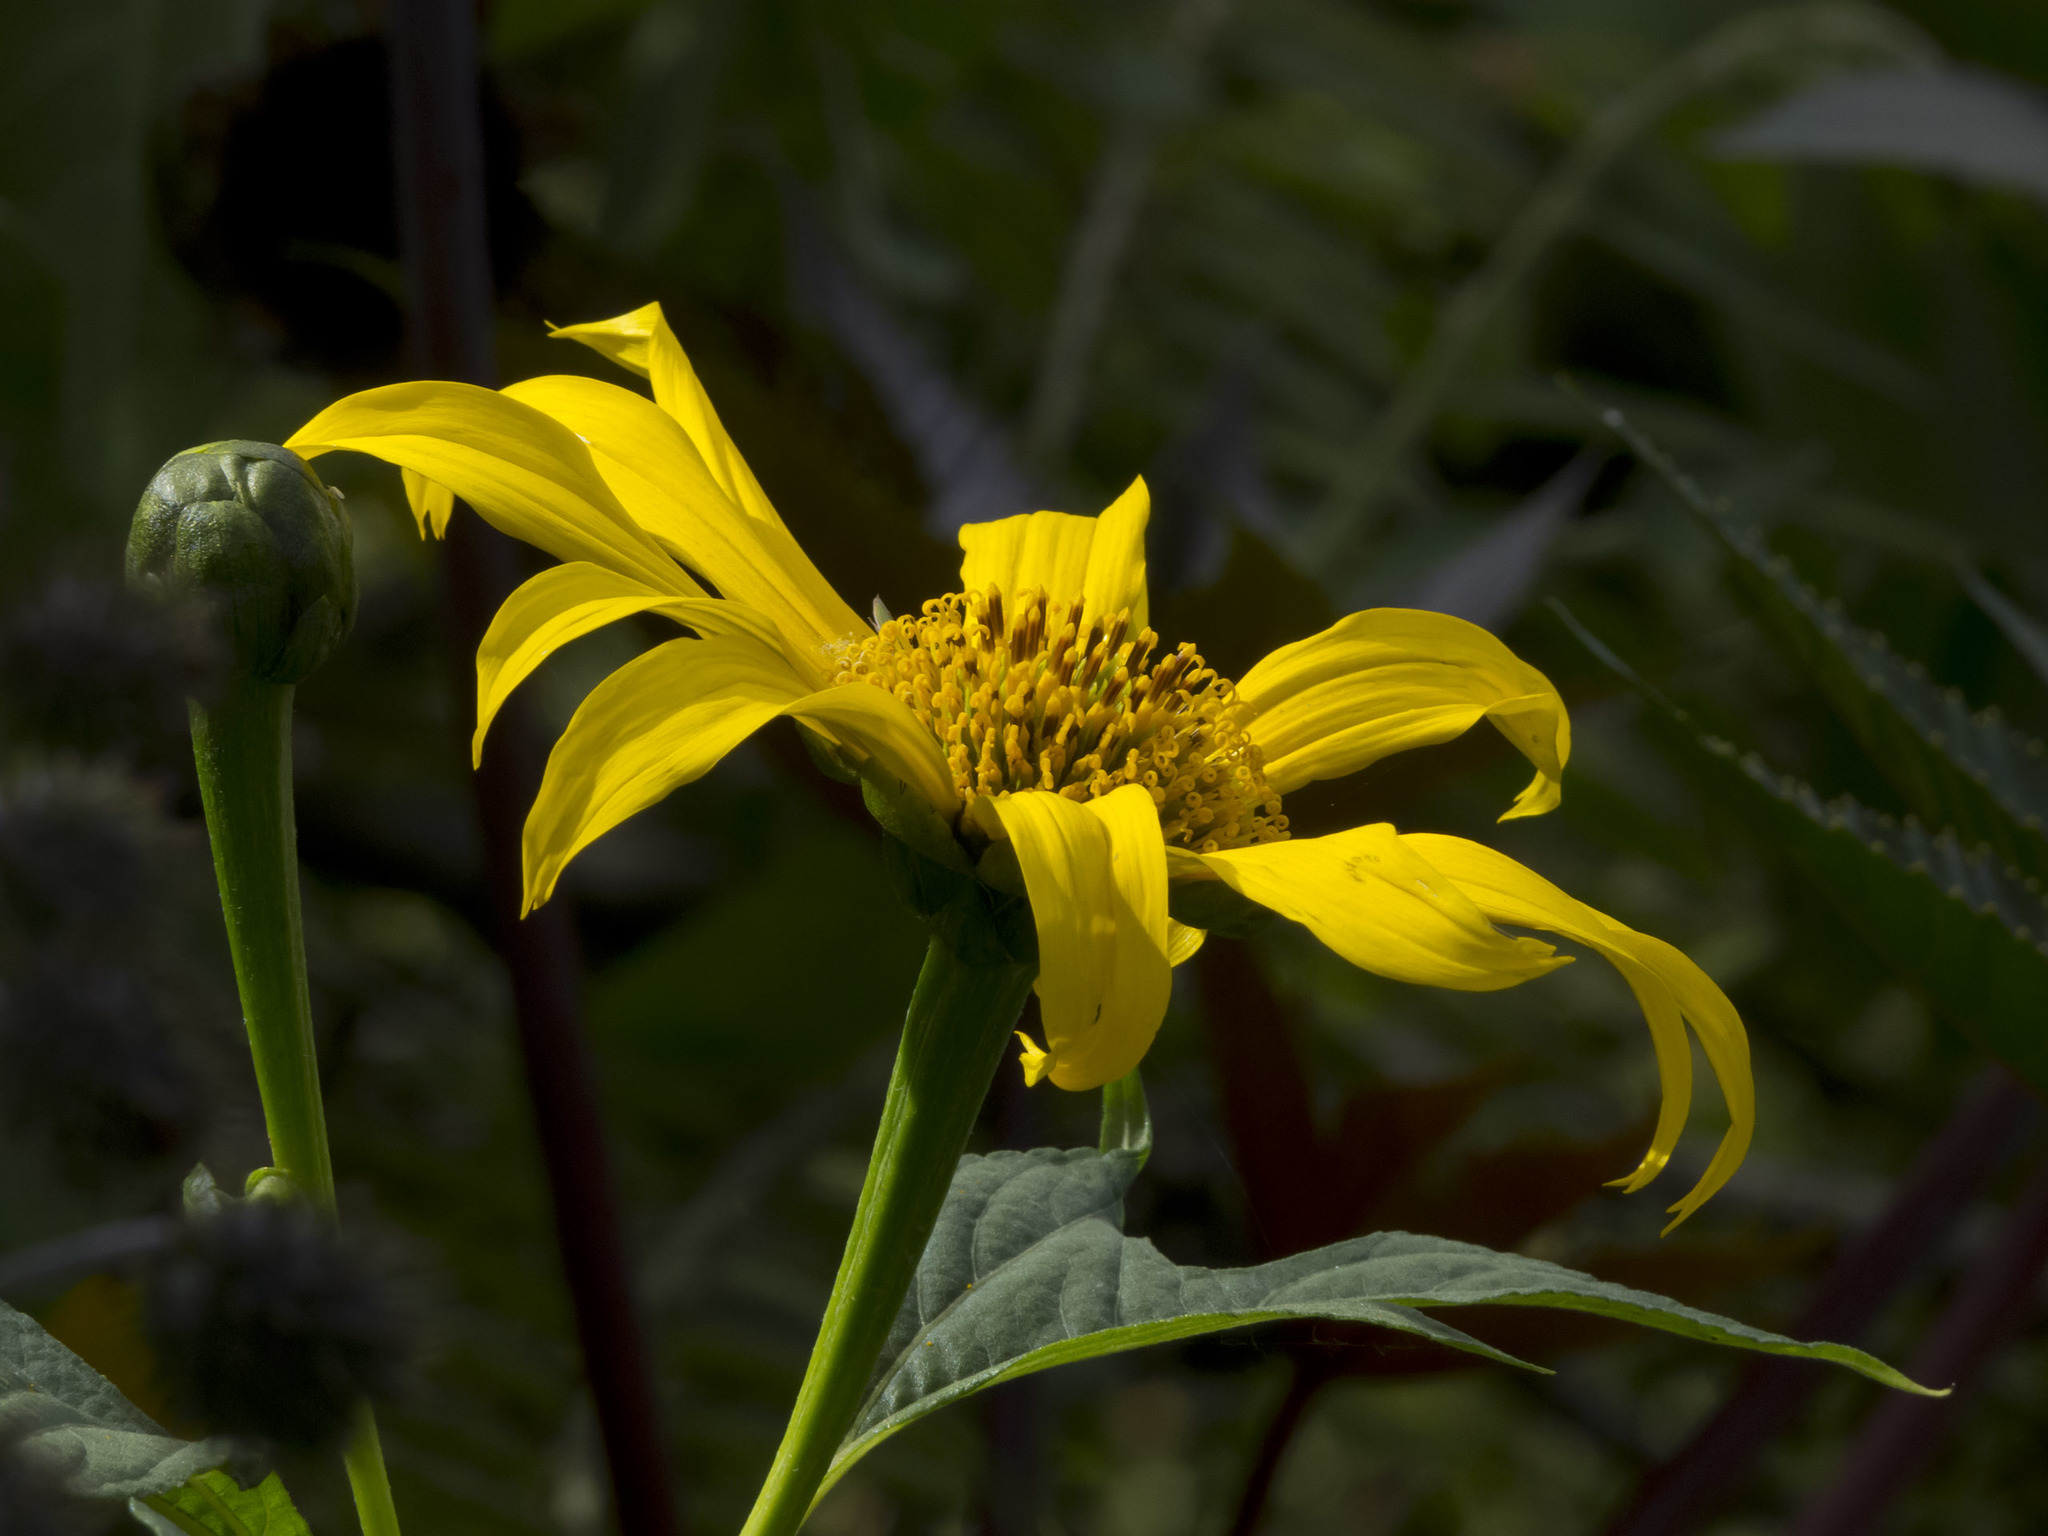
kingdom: Plantae
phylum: Tracheophyta
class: Magnoliopsida
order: Asterales
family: Asteraceae
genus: Tithonia
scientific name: Tithonia diversifolia
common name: Tree marigold
